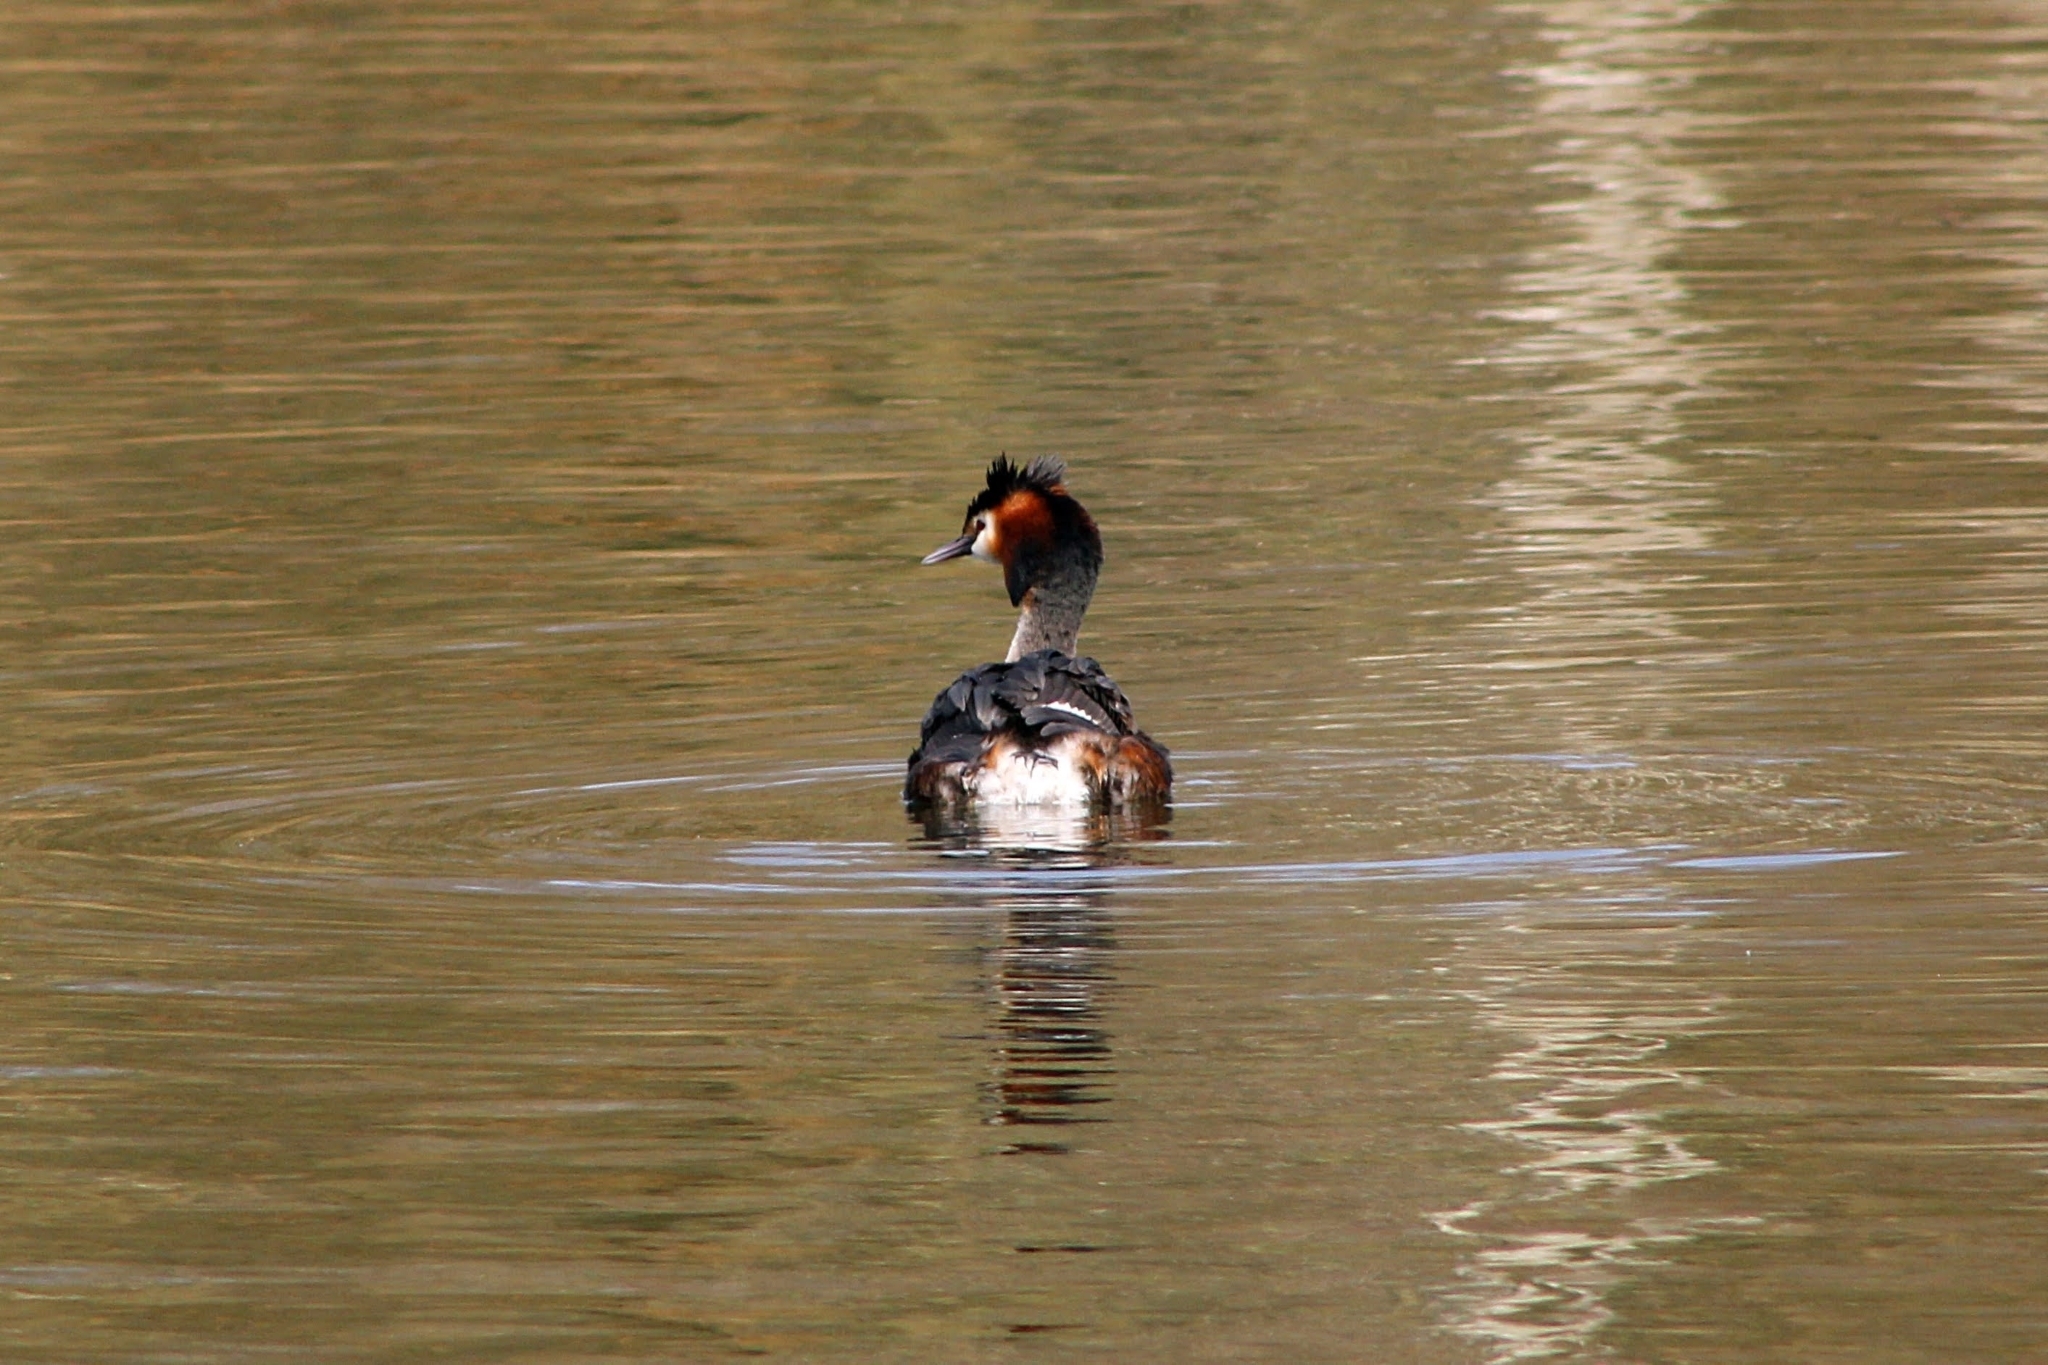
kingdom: Animalia
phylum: Chordata
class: Aves
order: Podicipediformes
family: Podicipedidae
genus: Podiceps
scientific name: Podiceps cristatus
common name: Great crested grebe
